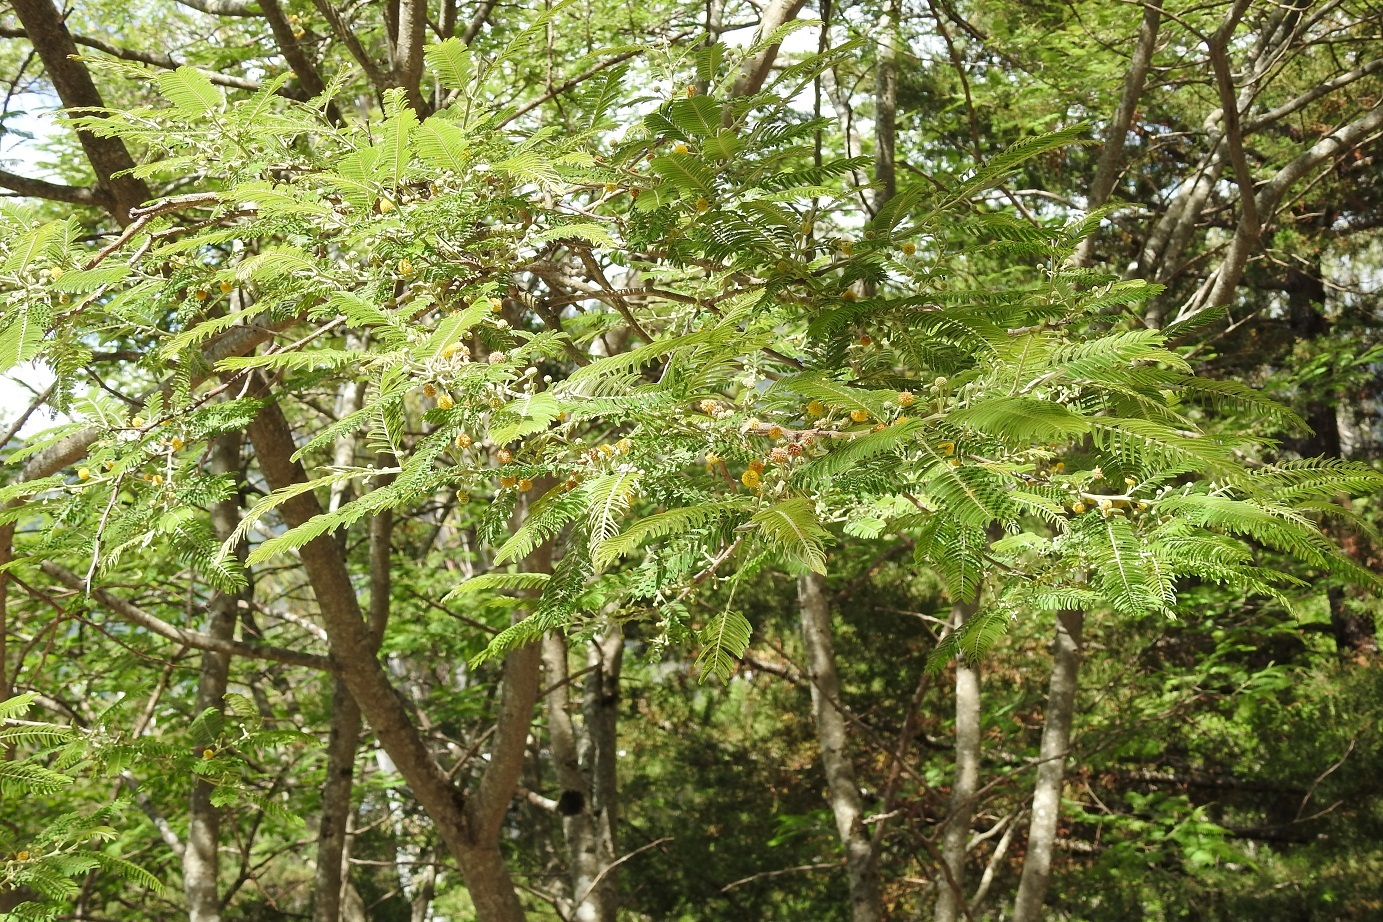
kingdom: Plantae
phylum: Tracheophyta
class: Magnoliopsida
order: Fabales
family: Fabaceae
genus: Vachellia
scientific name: Vachellia campechiana
